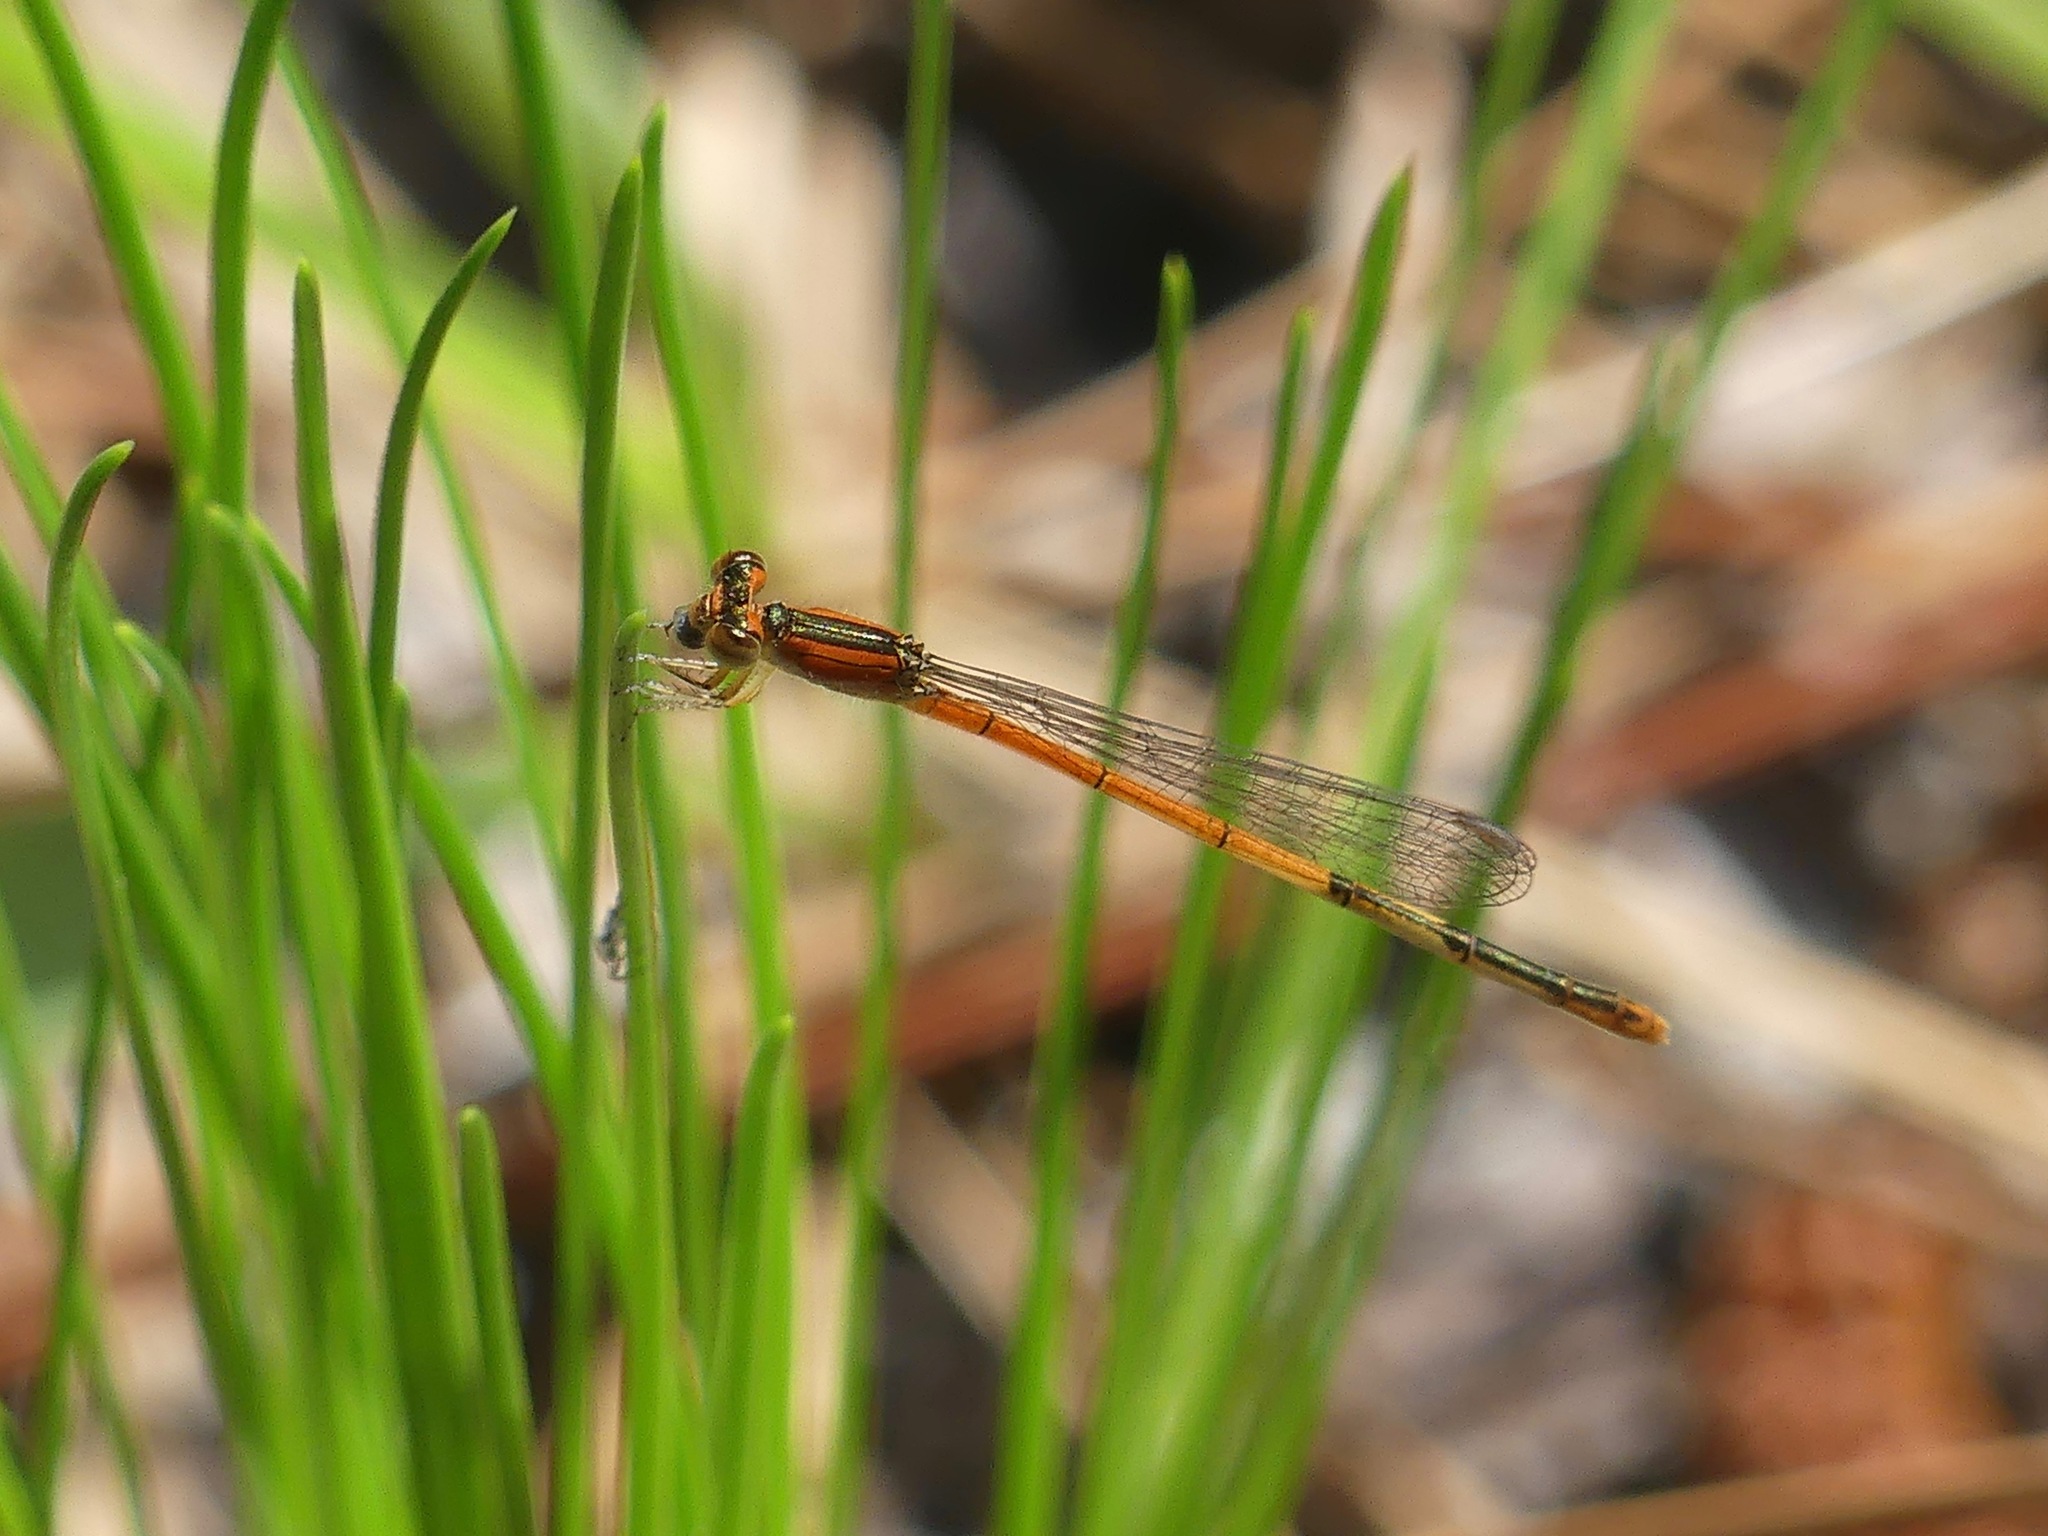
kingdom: Animalia
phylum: Arthropoda
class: Insecta
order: Odonata
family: Coenagrionidae
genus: Ischnura
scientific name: Ischnura hastata
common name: Citrine forktail
